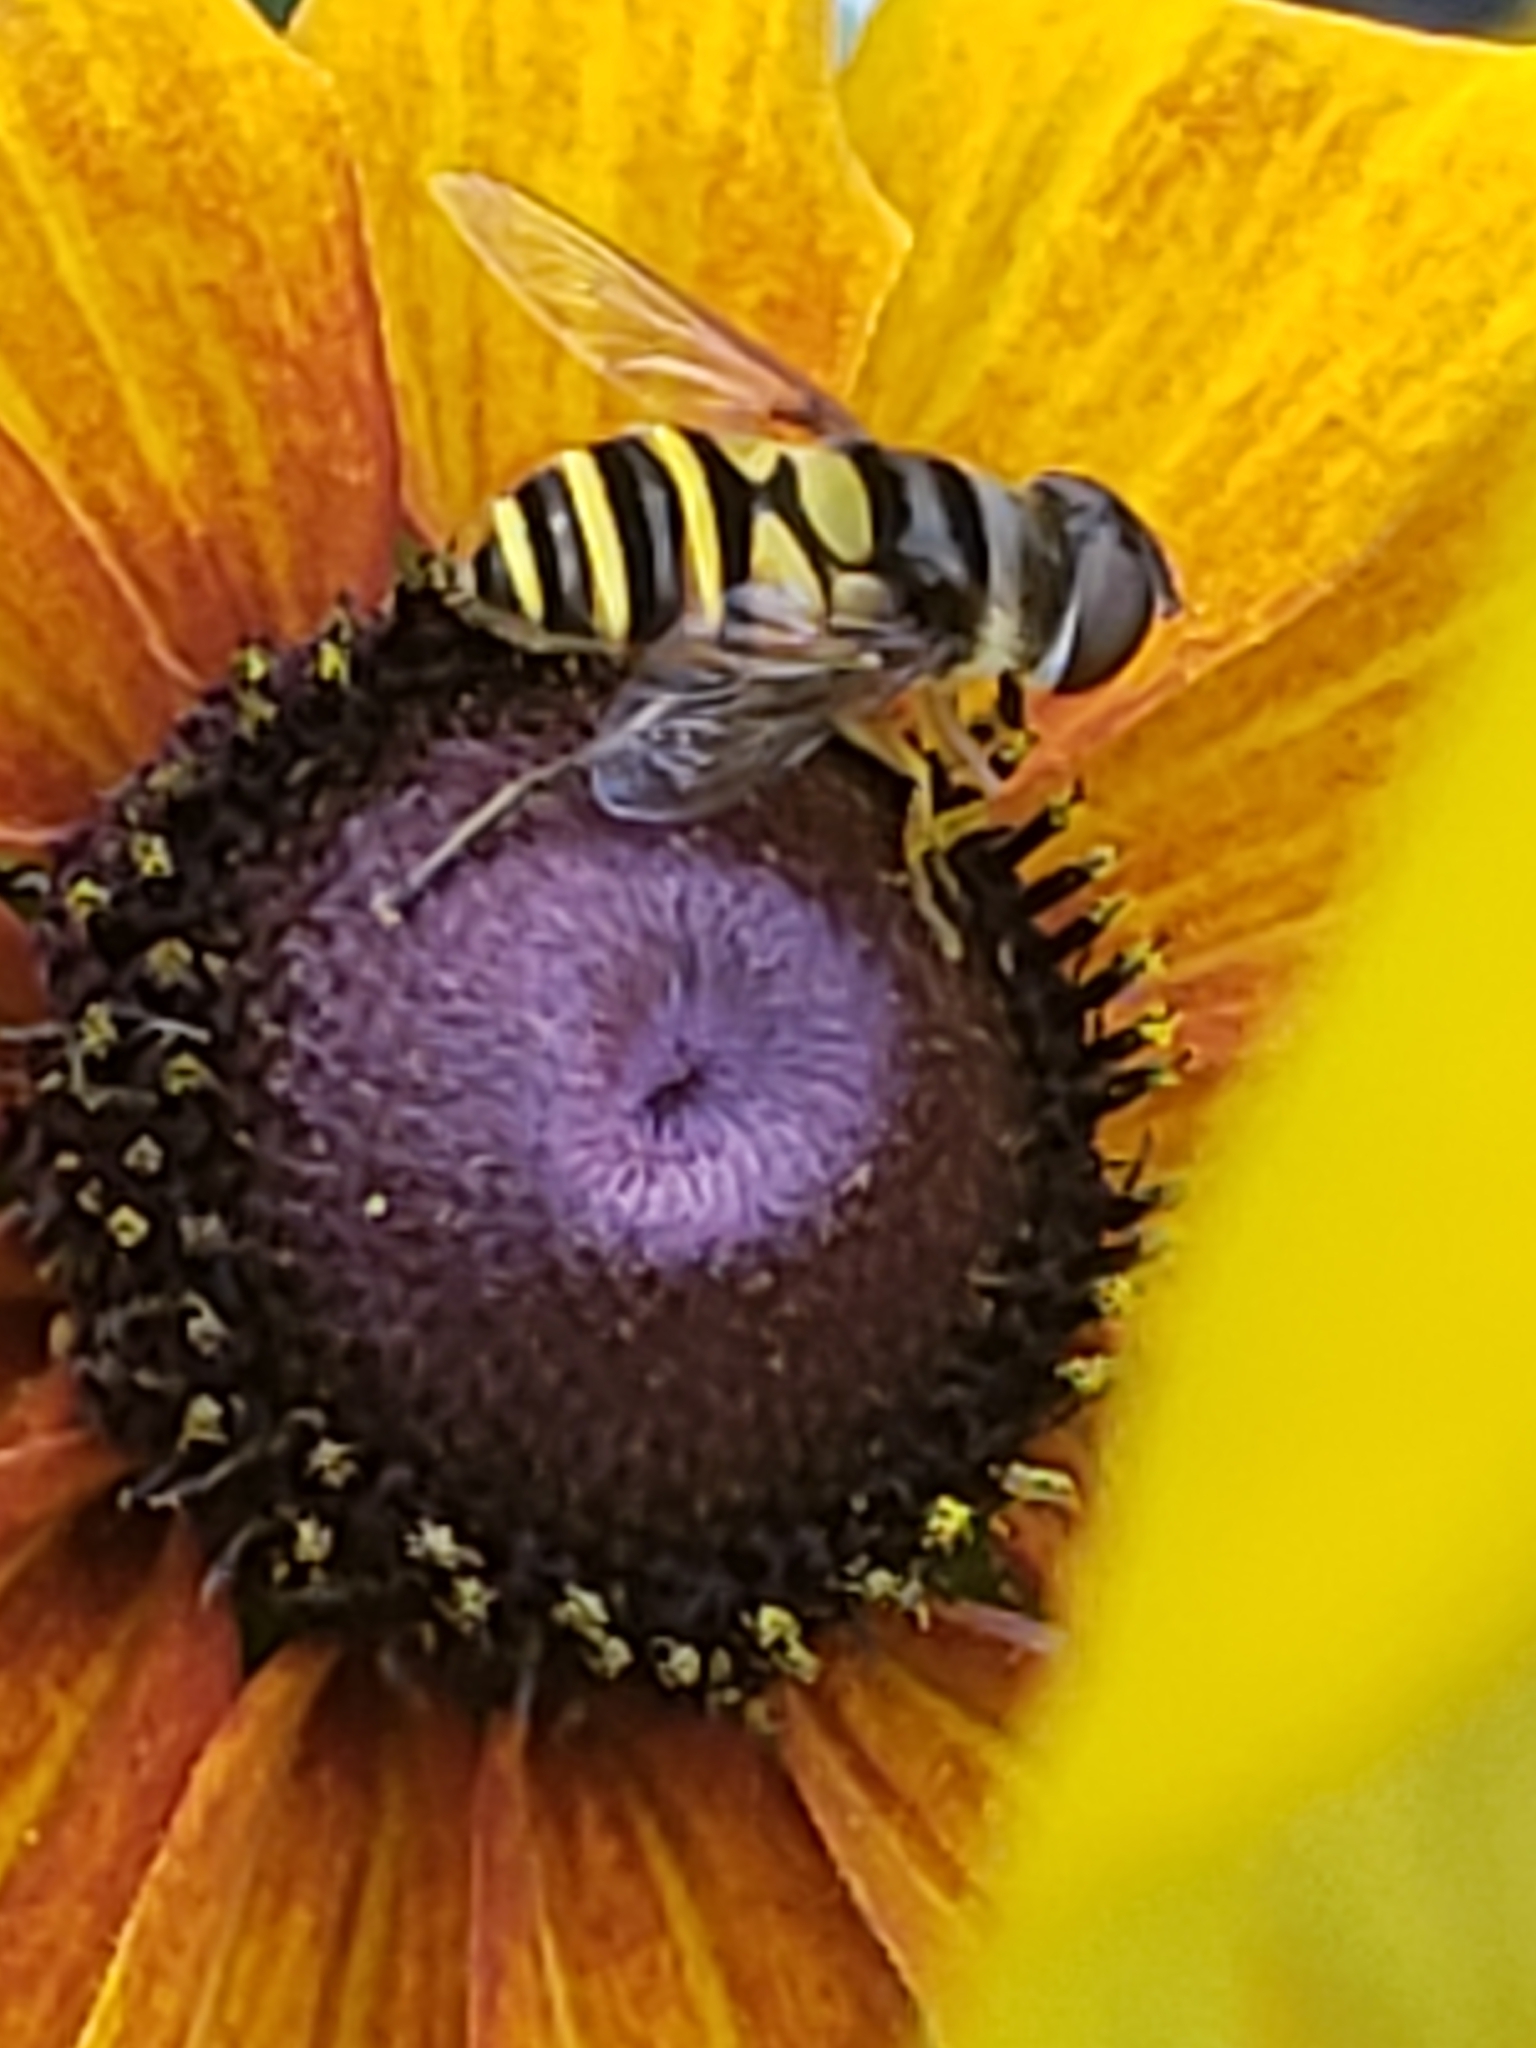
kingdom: Animalia
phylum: Arthropoda
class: Insecta
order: Diptera
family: Syrphidae
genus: Eristalis
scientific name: Eristalis transversa
